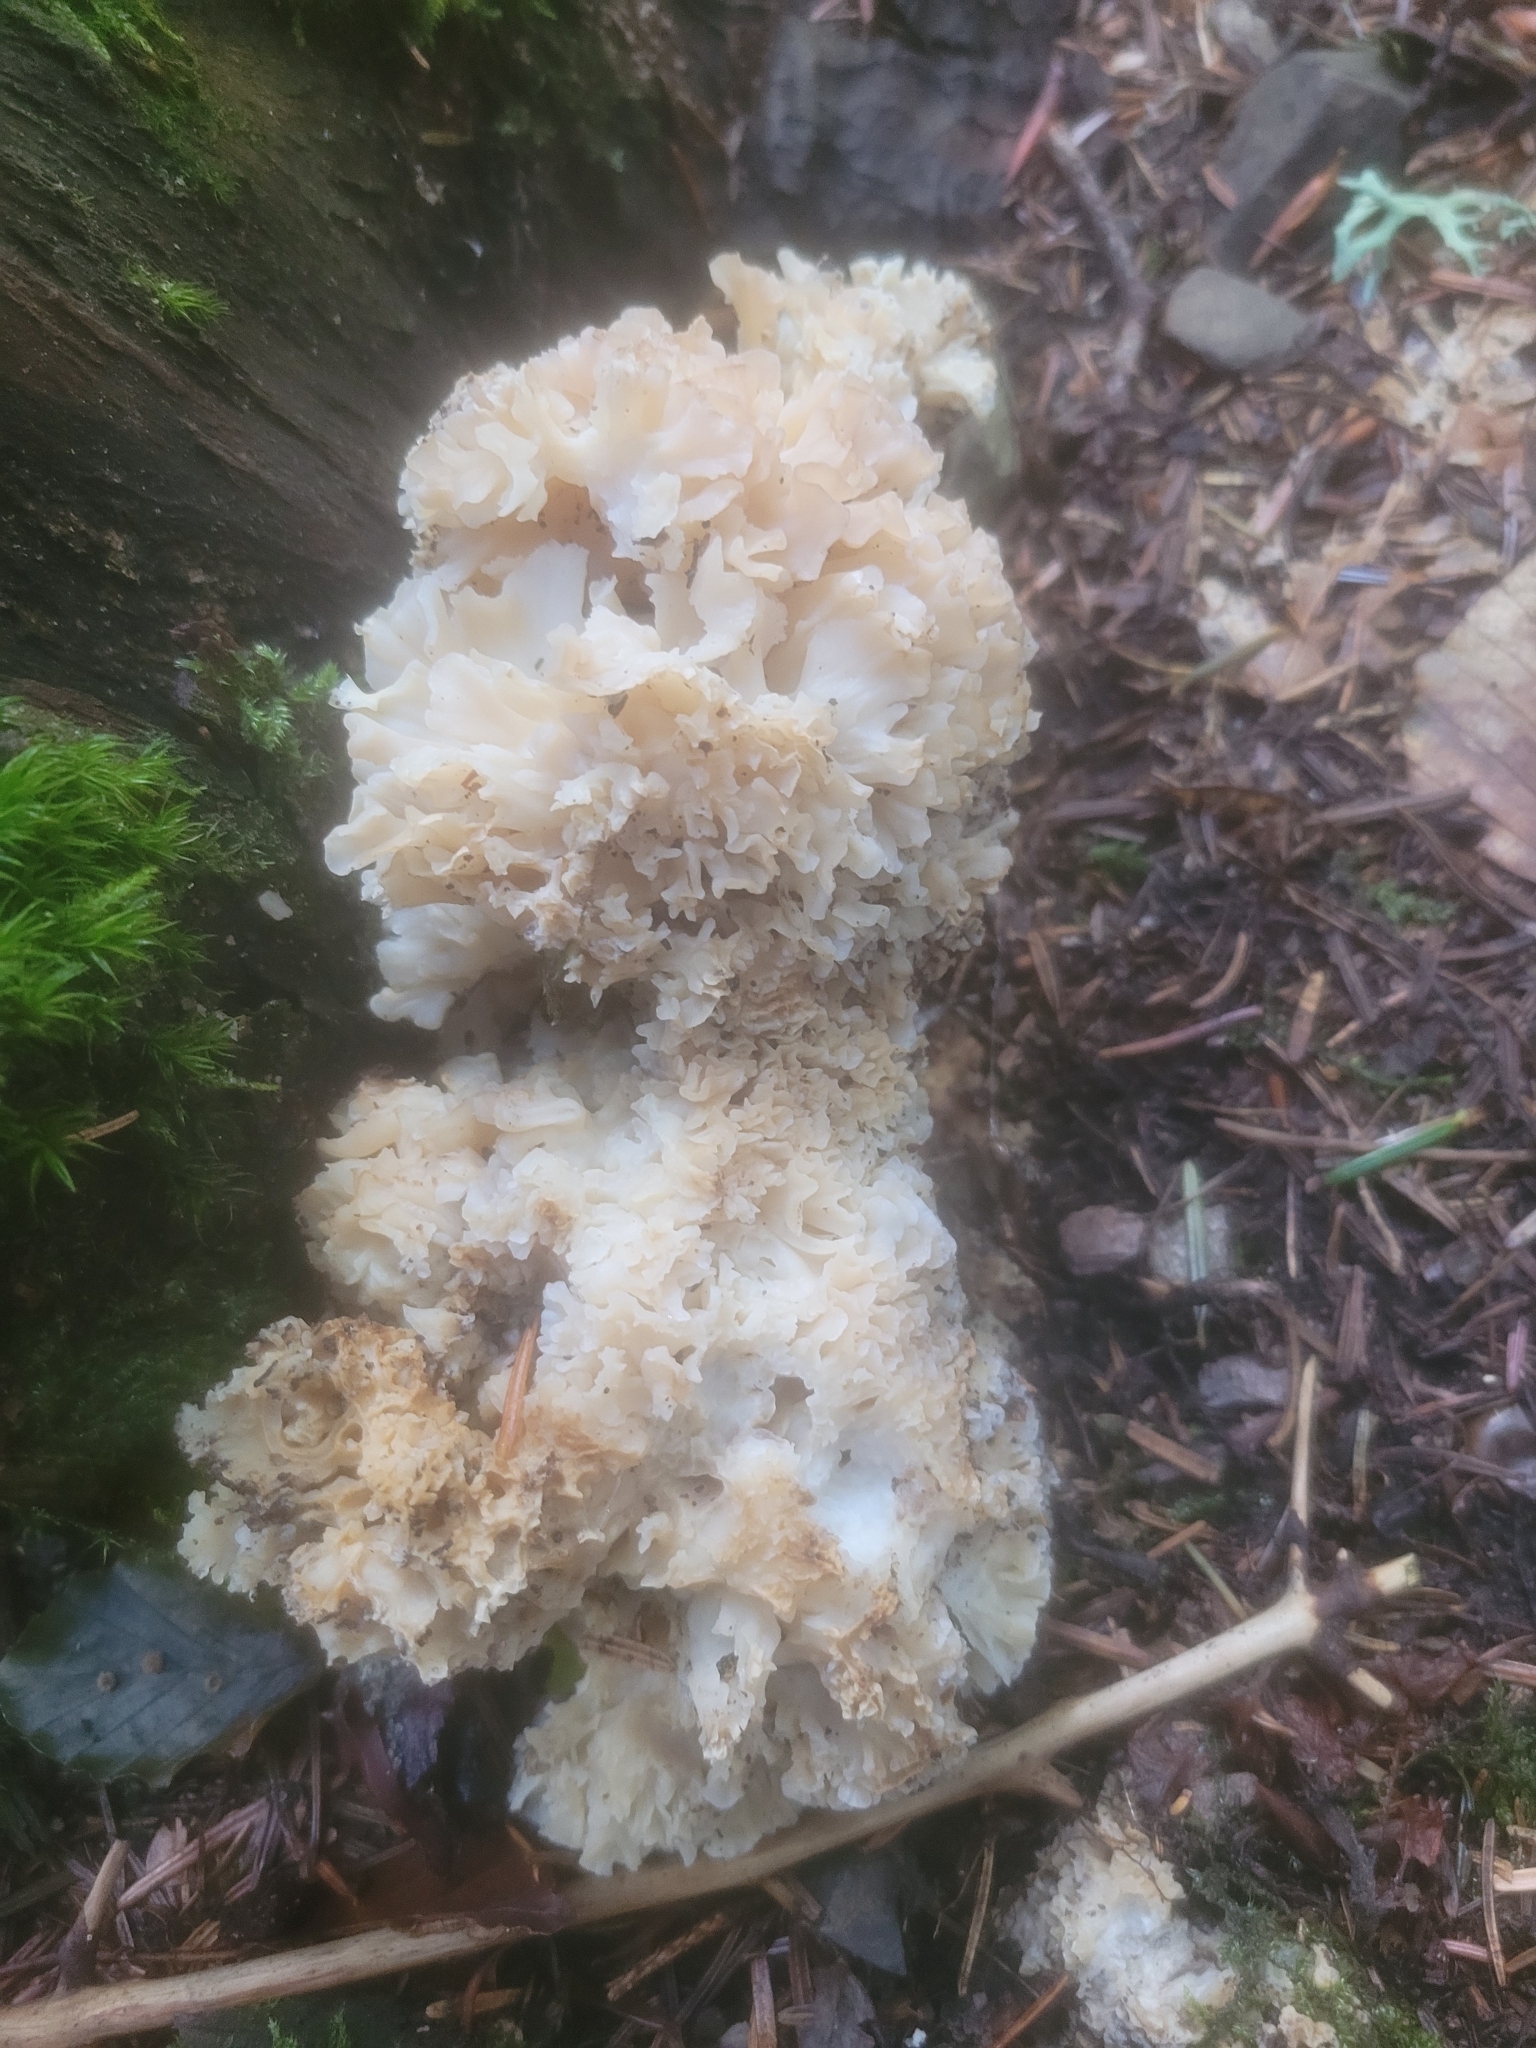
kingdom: Fungi
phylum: Basidiomycota
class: Agaricomycetes
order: Polyporales
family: Sparassidaceae
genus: Sparassis
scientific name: Sparassis crispa
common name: Brain fungus
